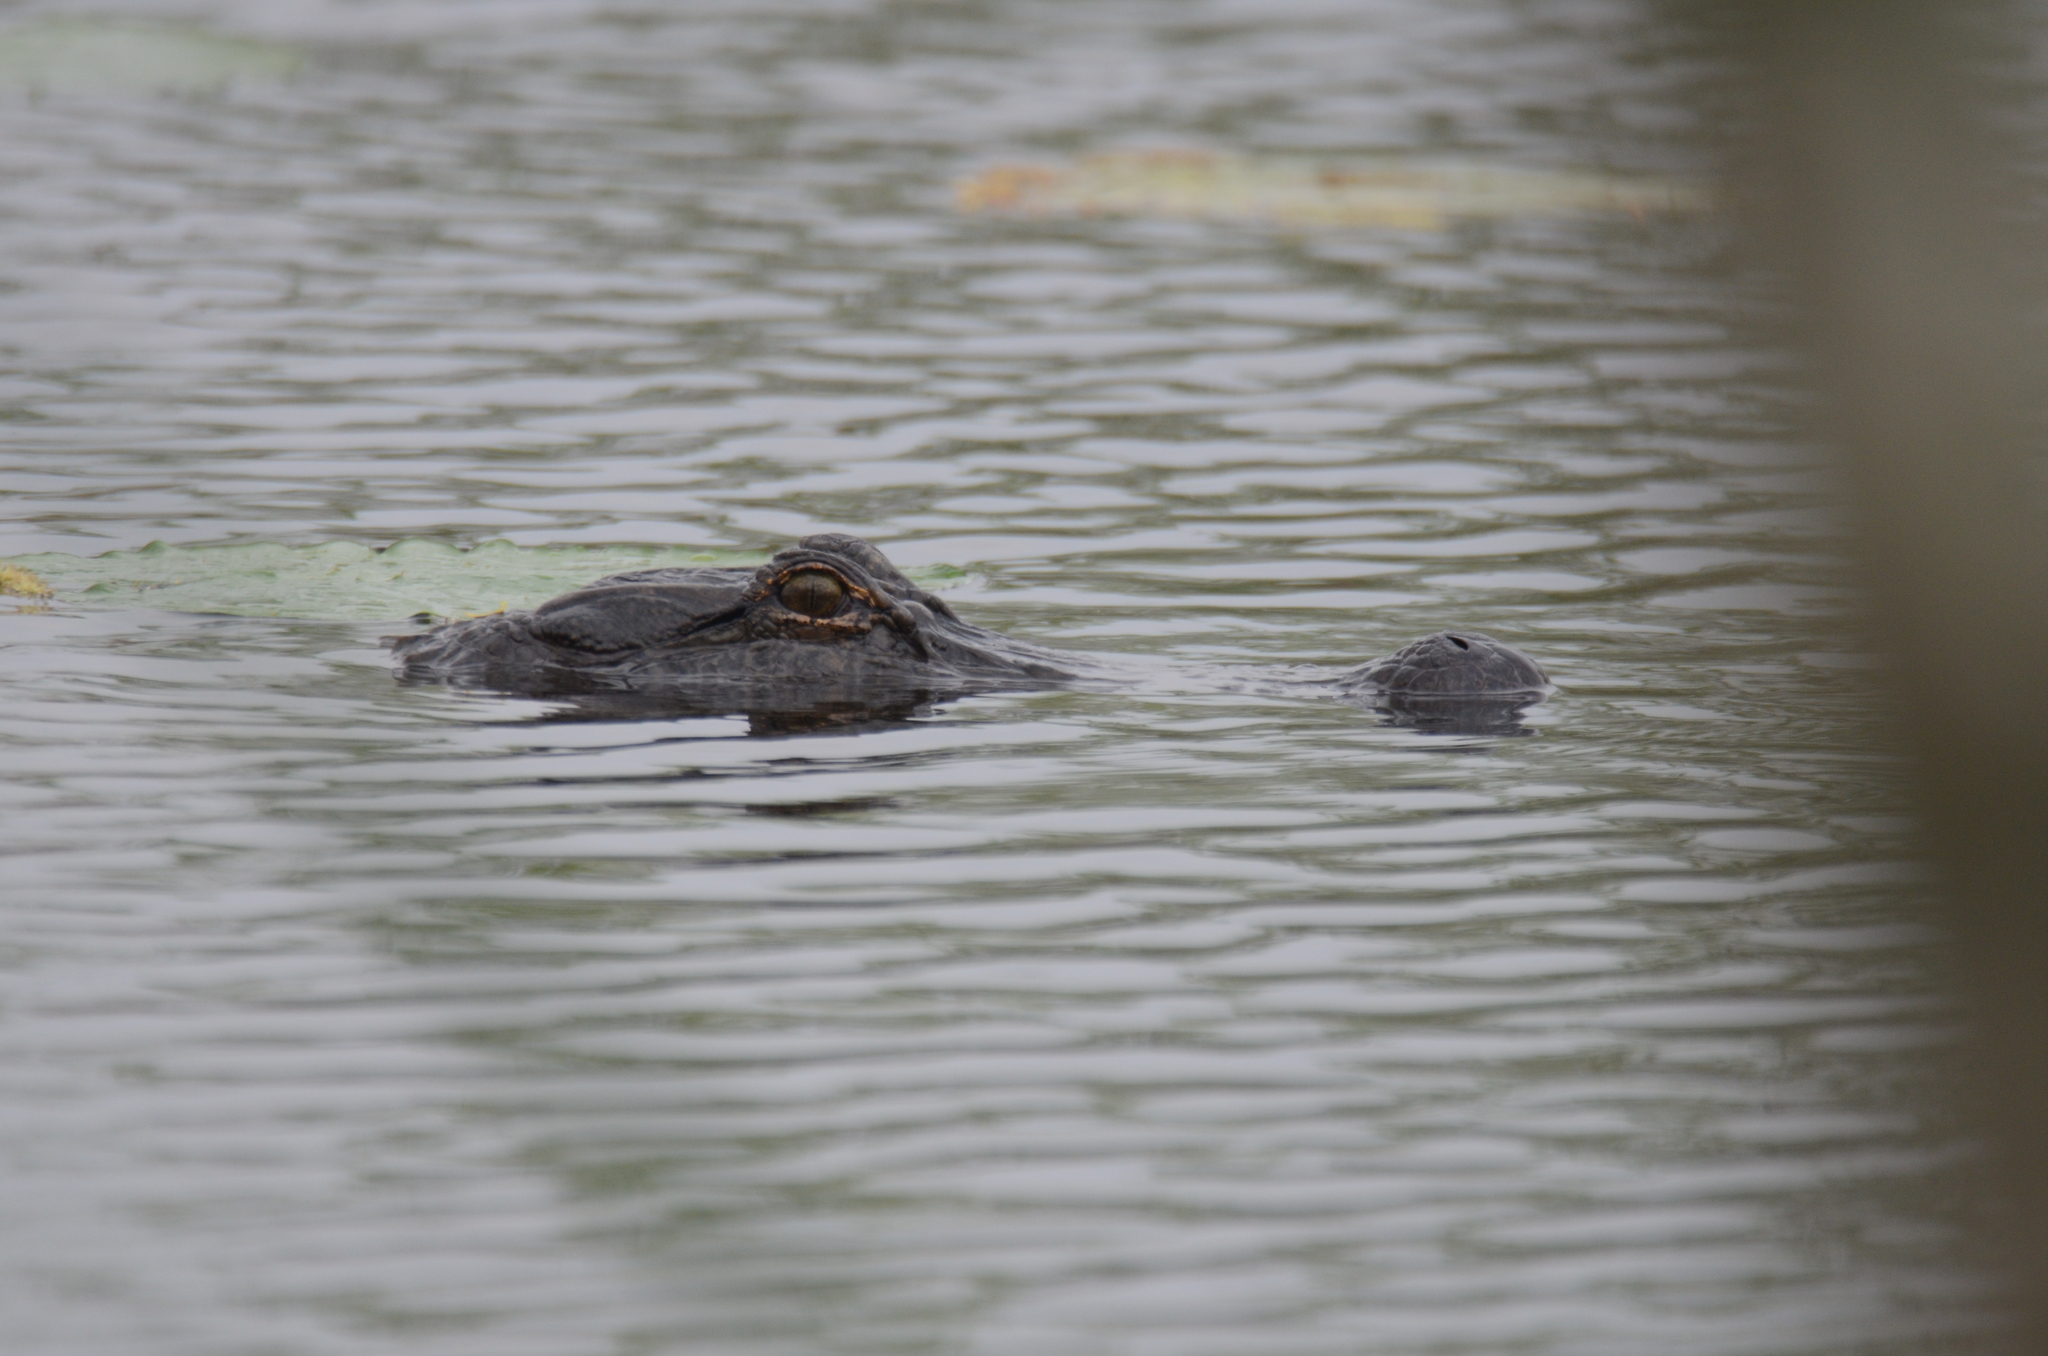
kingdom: Animalia
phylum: Chordata
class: Crocodylia
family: Alligatoridae
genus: Alligator
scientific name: Alligator mississippiensis
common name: American alligator
